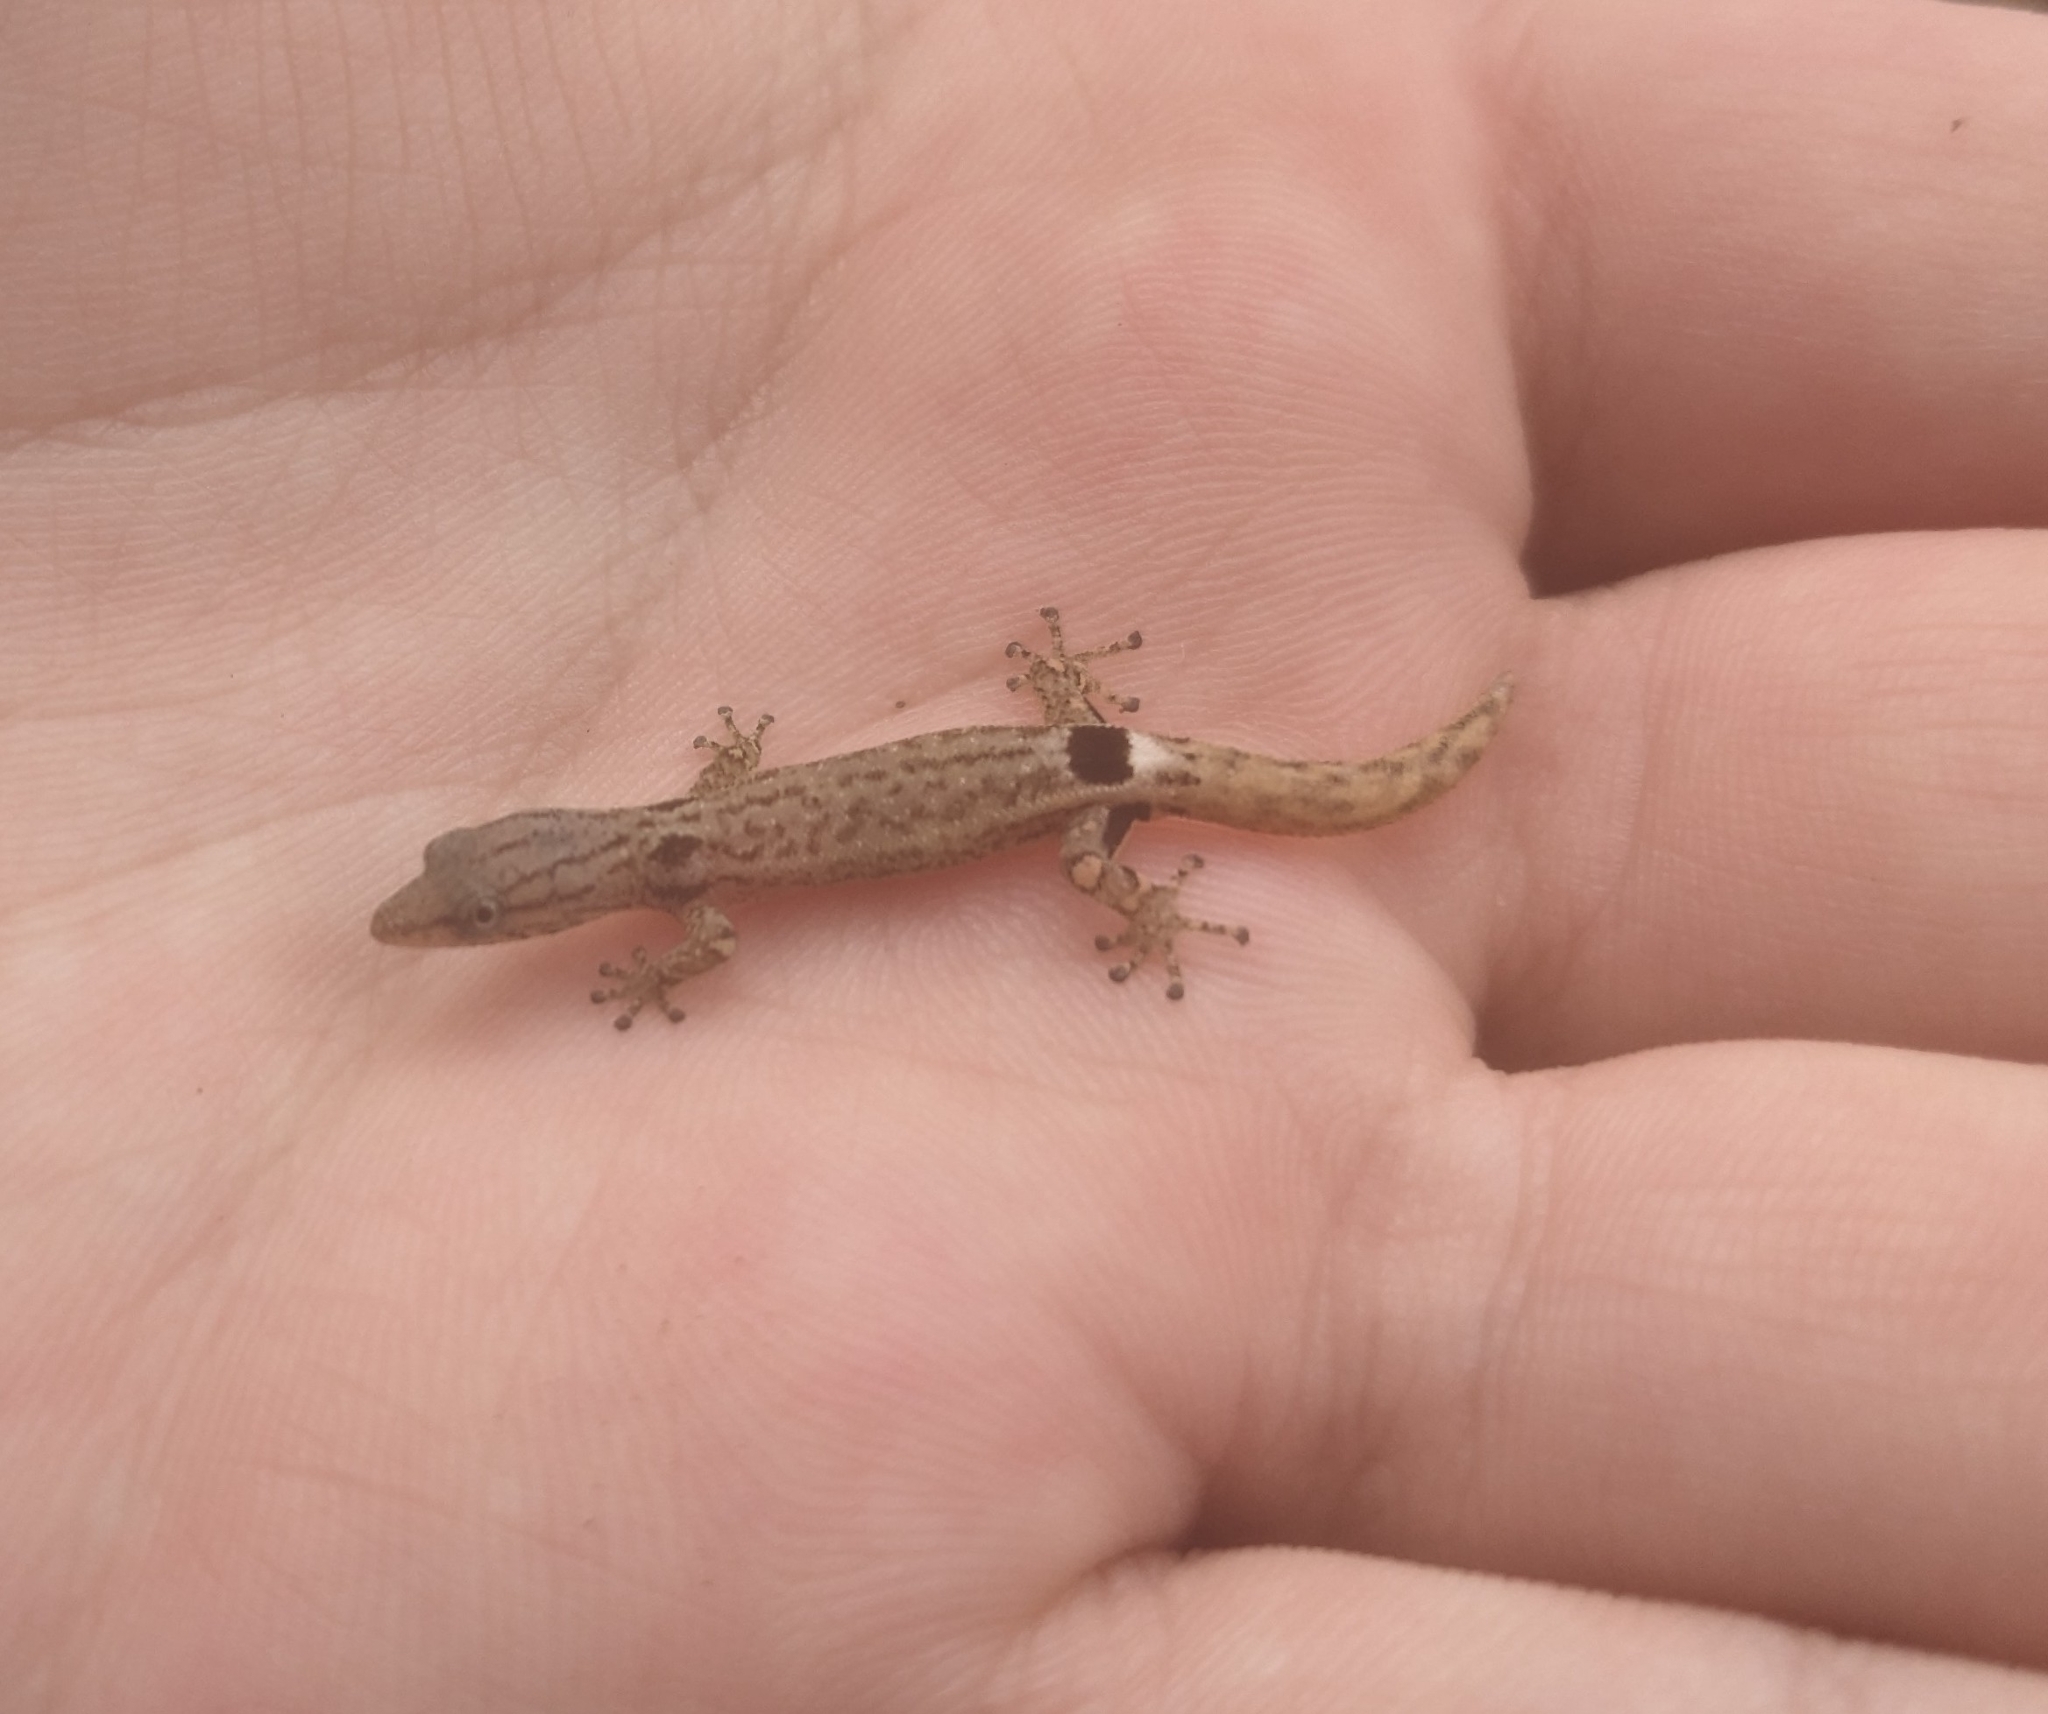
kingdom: Animalia
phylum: Chordata
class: Squamata
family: Sphaerodactylidae
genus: Sphaerodactylus
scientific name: Sphaerodactylus millepunctatus
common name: Lower central american geckolet
